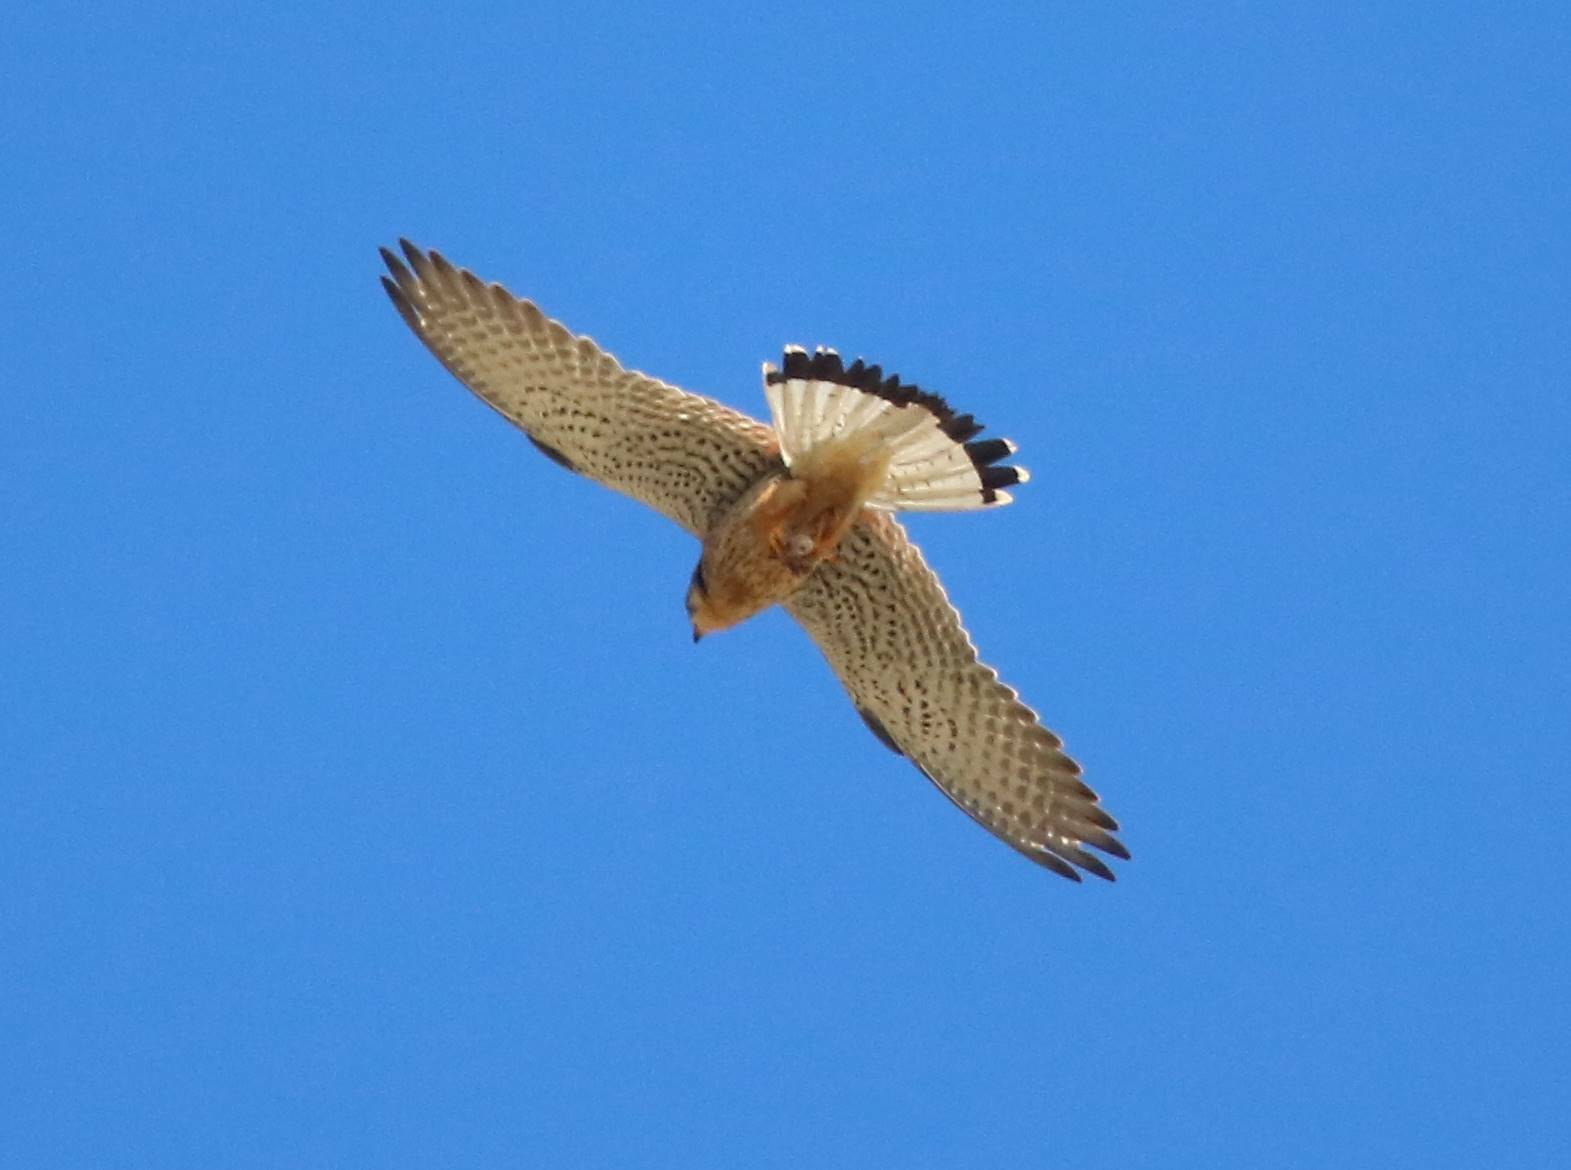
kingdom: Animalia
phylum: Chordata
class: Aves
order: Falconiformes
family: Falconidae
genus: Falco
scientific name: Falco tinnunculus
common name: Common kestrel
